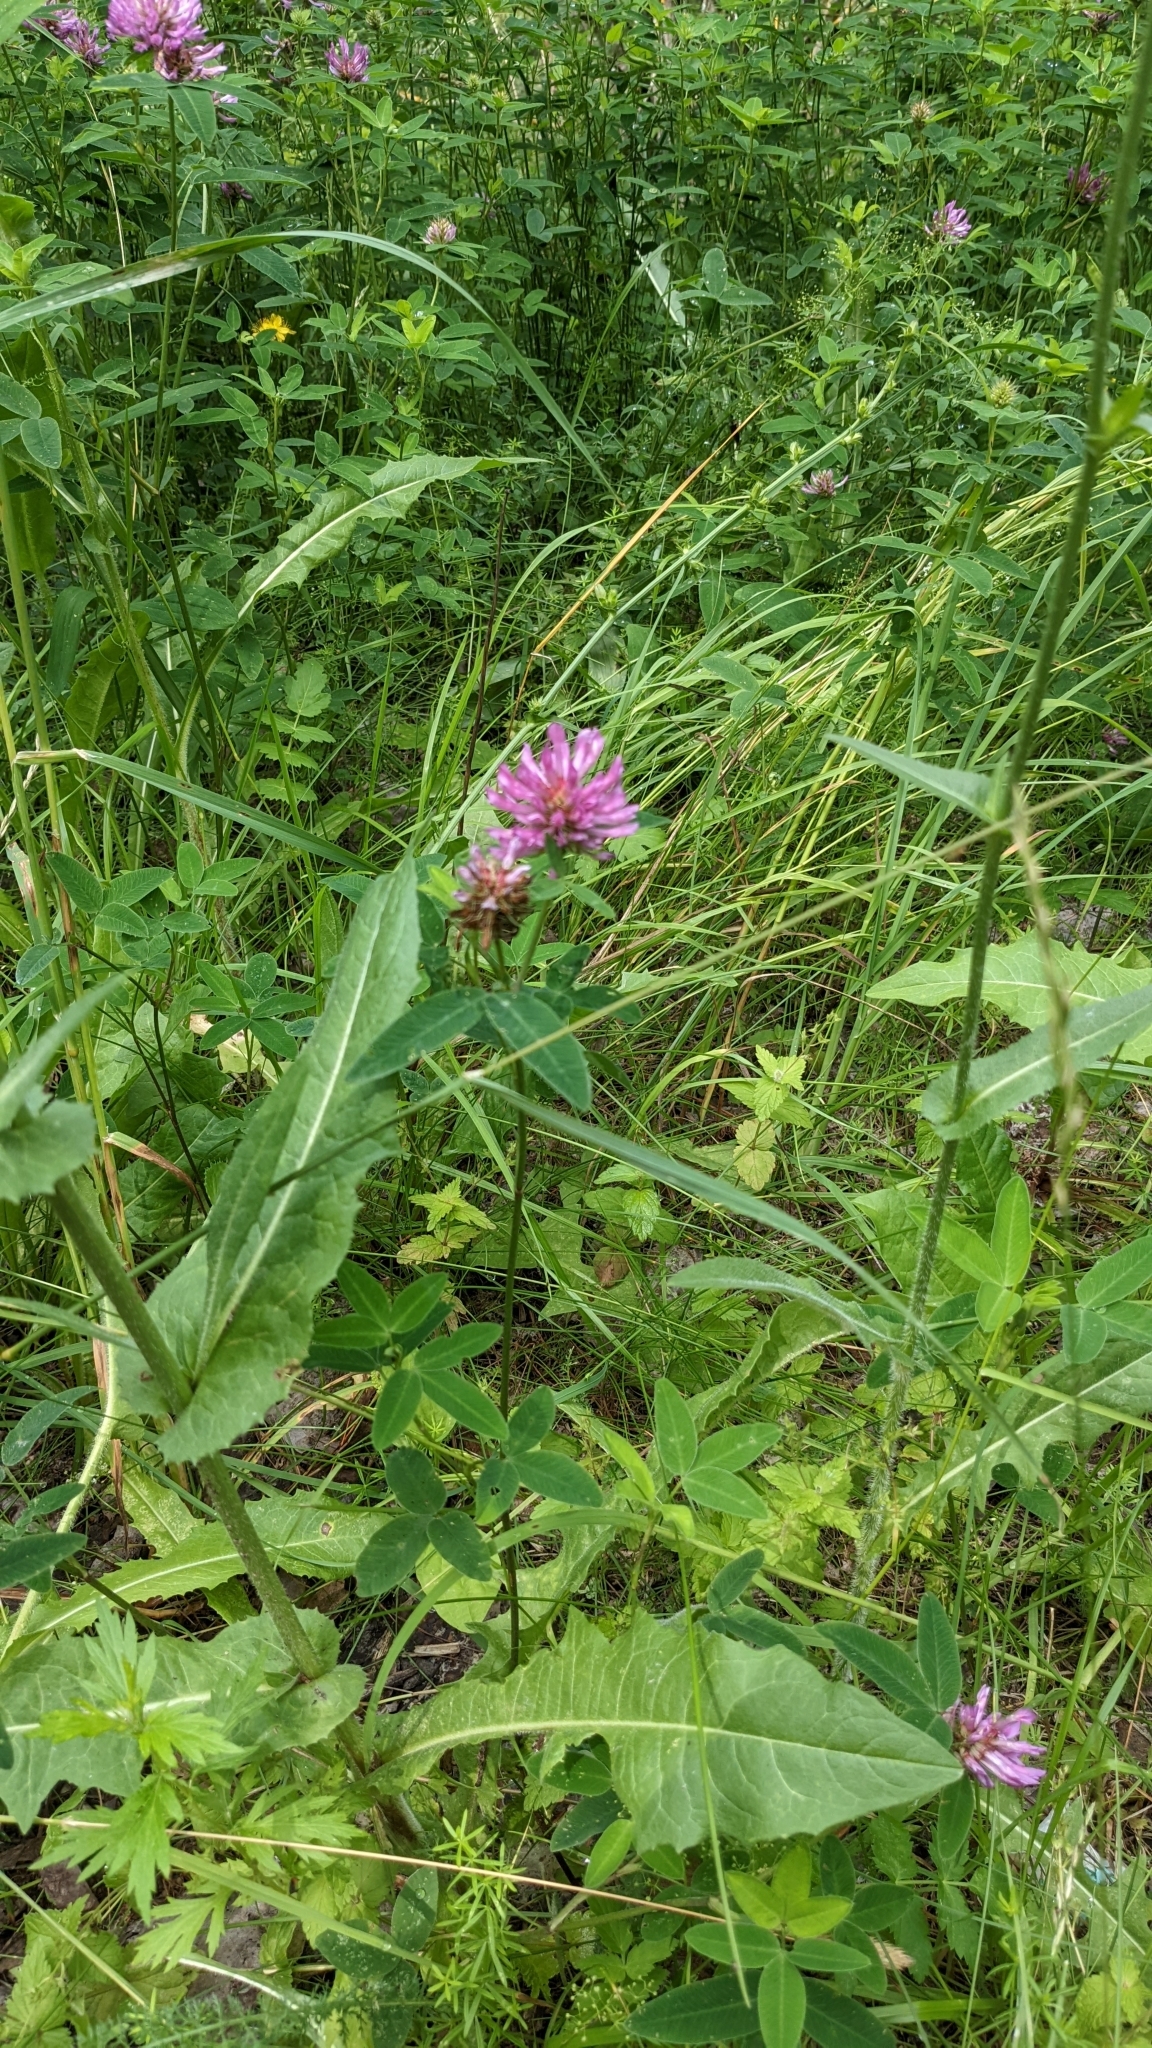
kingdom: Plantae
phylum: Tracheophyta
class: Magnoliopsida
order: Fabales
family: Fabaceae
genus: Trifolium
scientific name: Trifolium medium
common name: Zigzag clover
